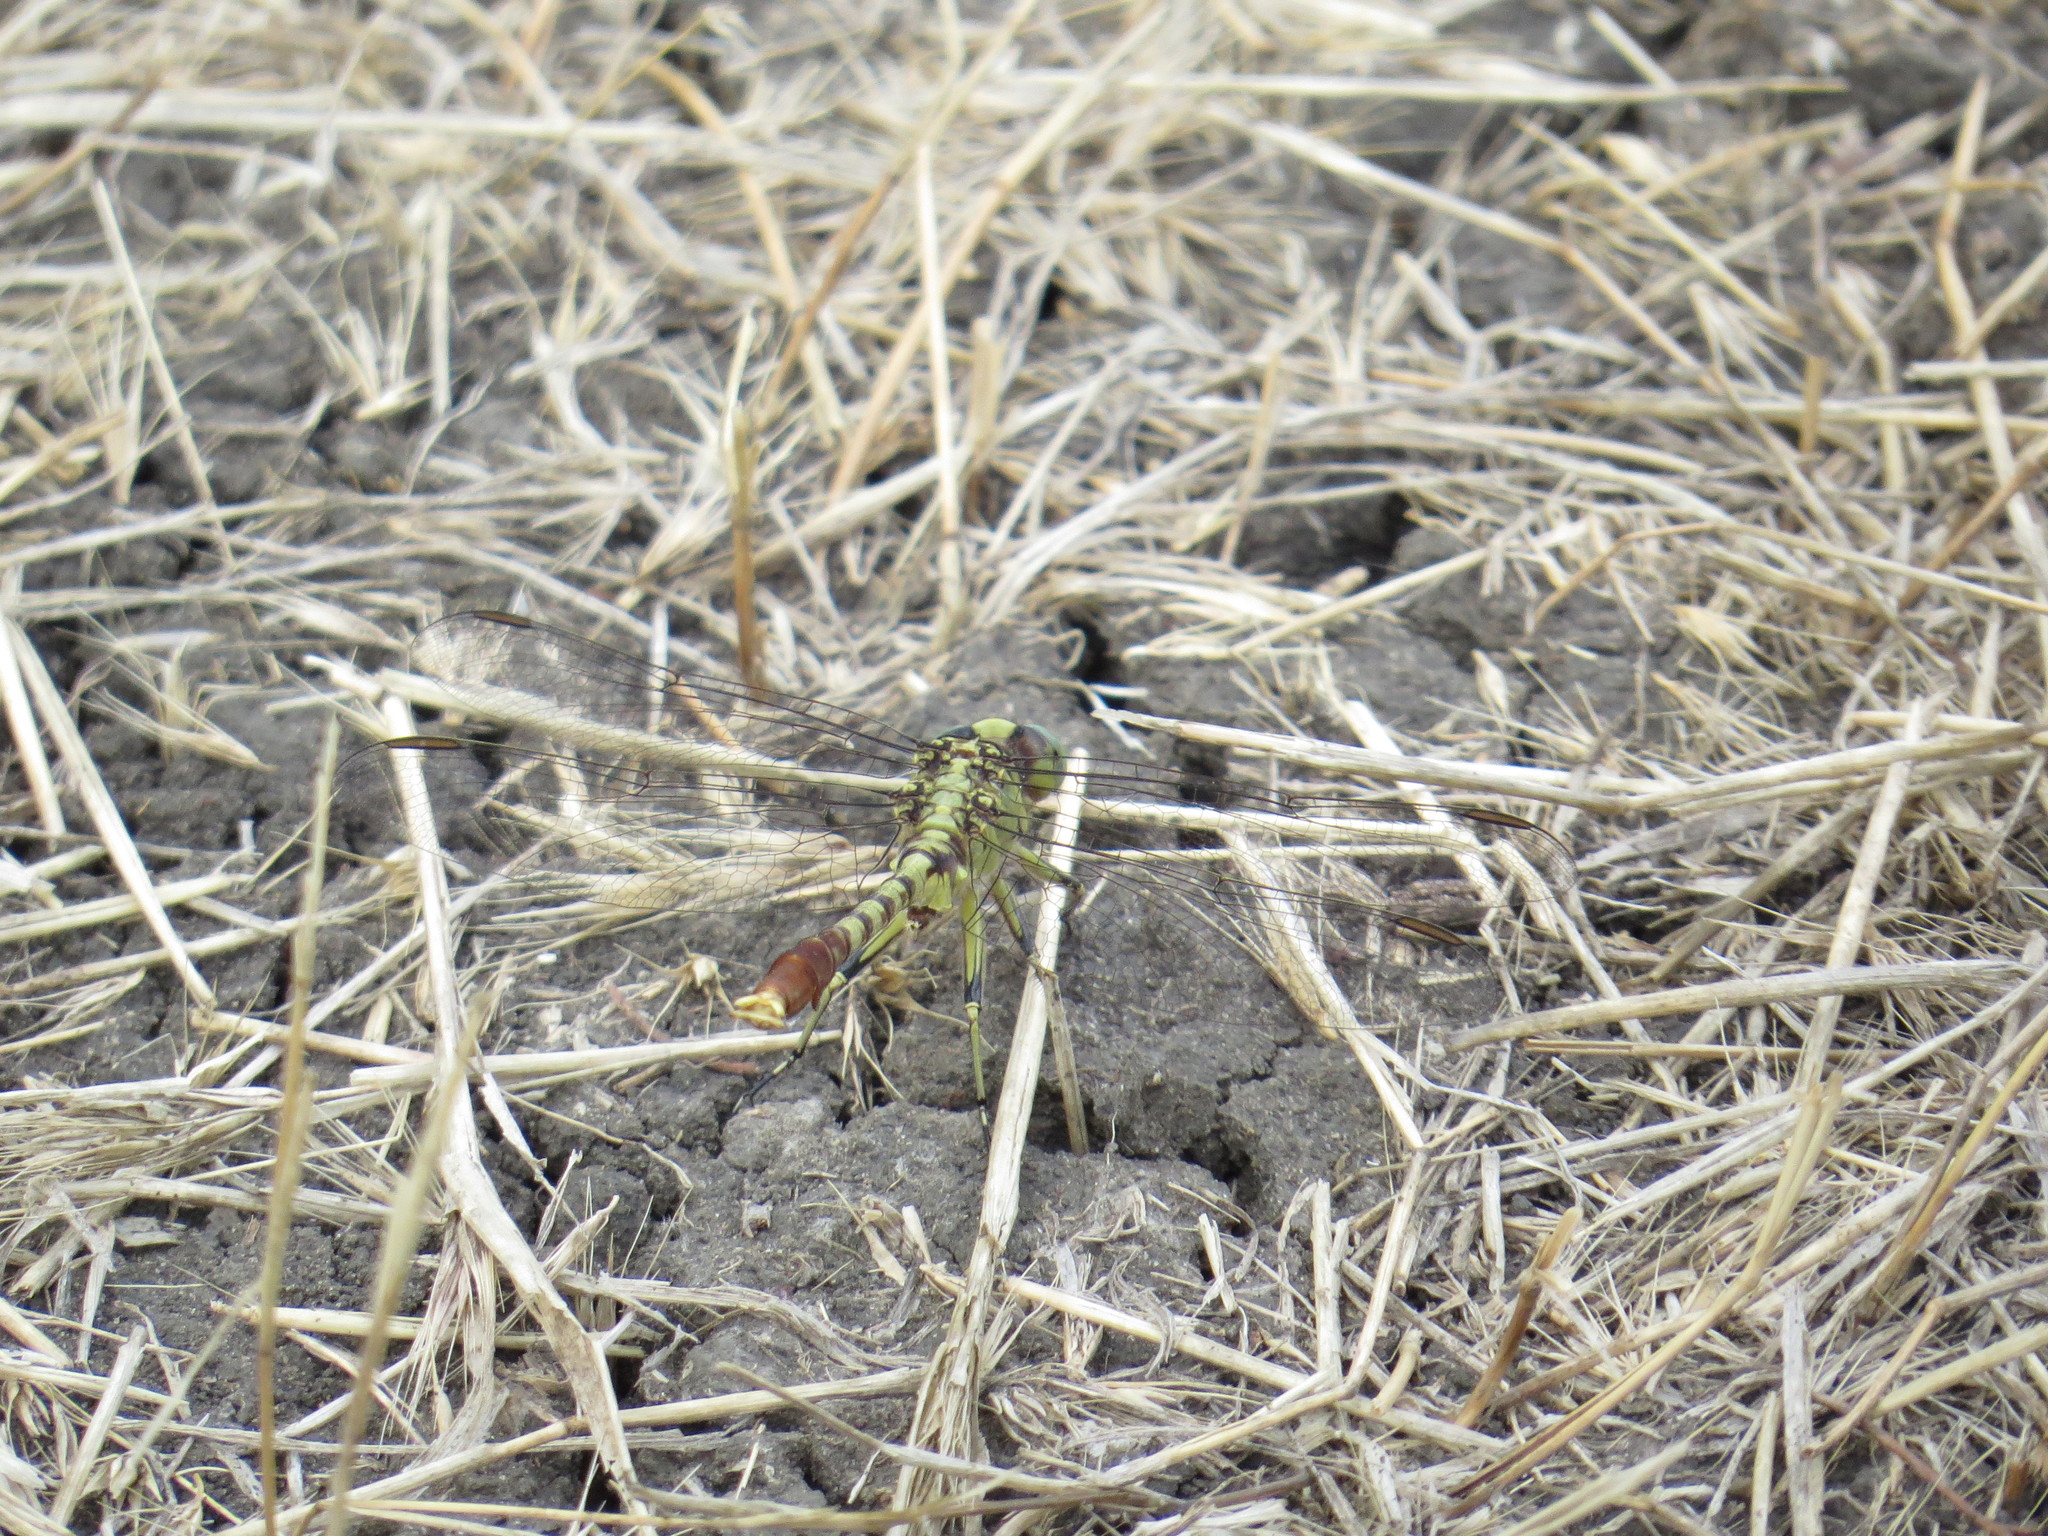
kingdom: Animalia
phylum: Arthropoda
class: Insecta
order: Odonata
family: Gomphidae
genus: Arigomphus
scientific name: Arigomphus submedianus
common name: Jade clubtail
